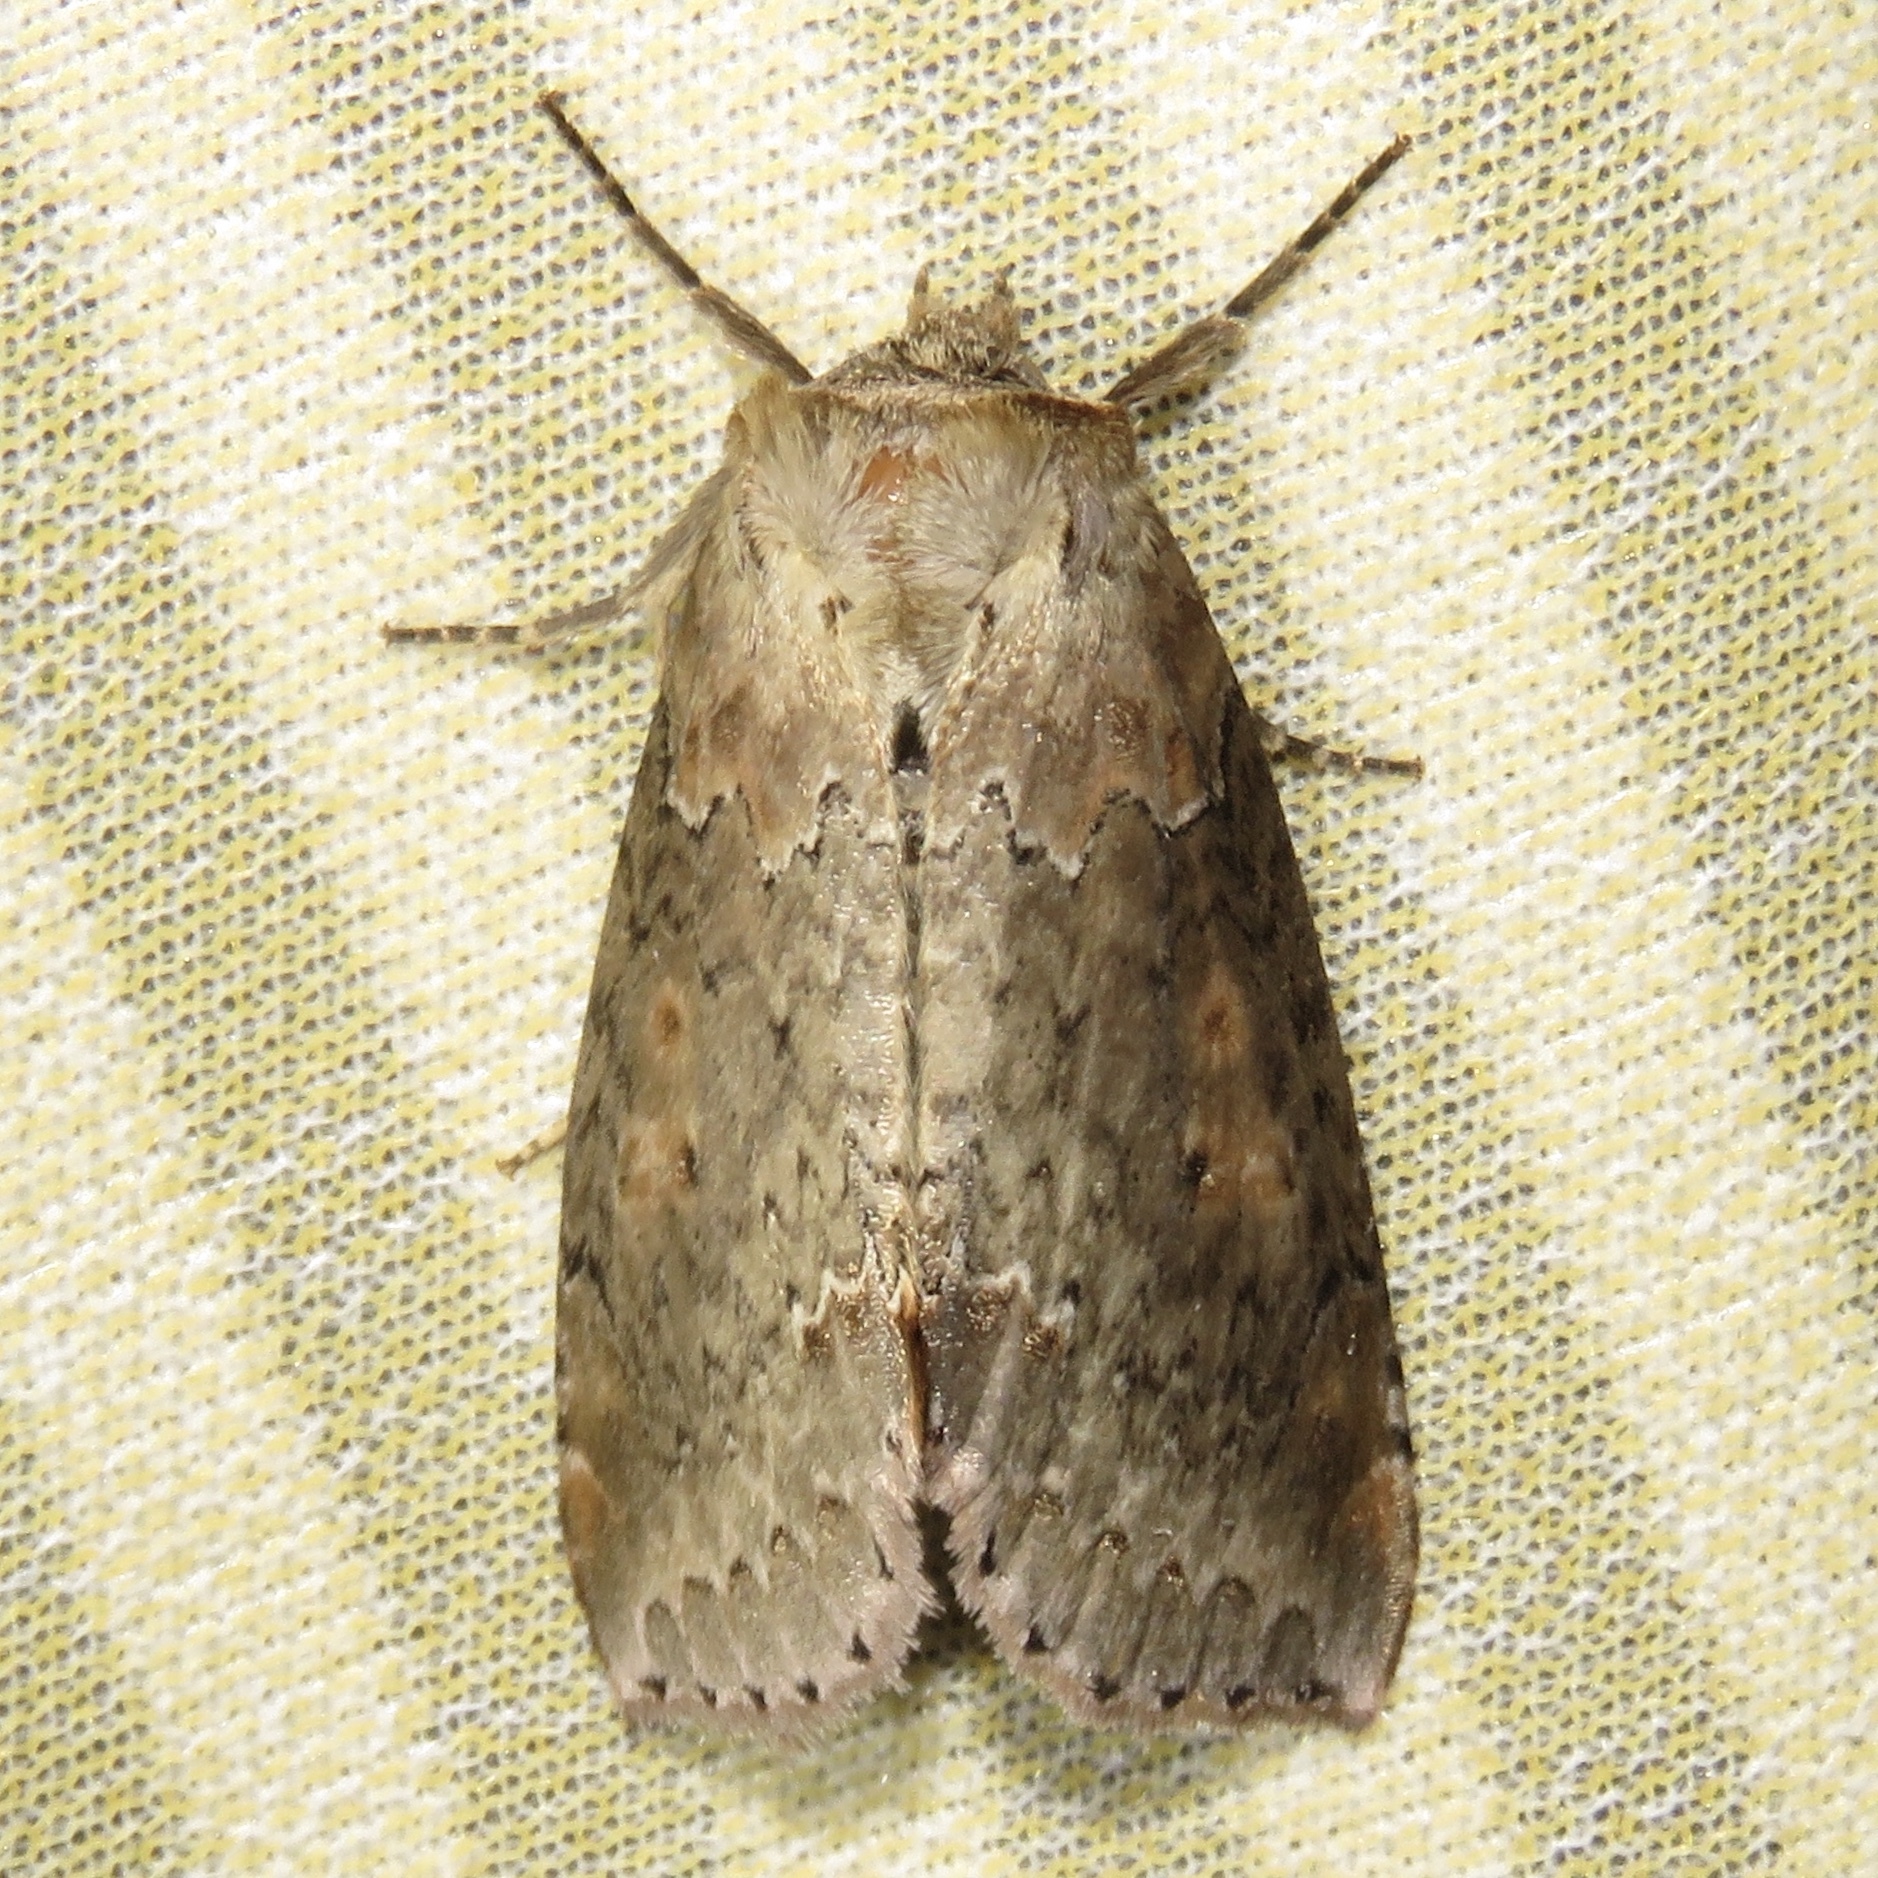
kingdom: Animalia
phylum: Arthropoda
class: Insecta
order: Lepidoptera
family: Drepanidae
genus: Pseudothyatira
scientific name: Pseudothyatira cymatophoroides
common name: Tufted thyatirid moth
